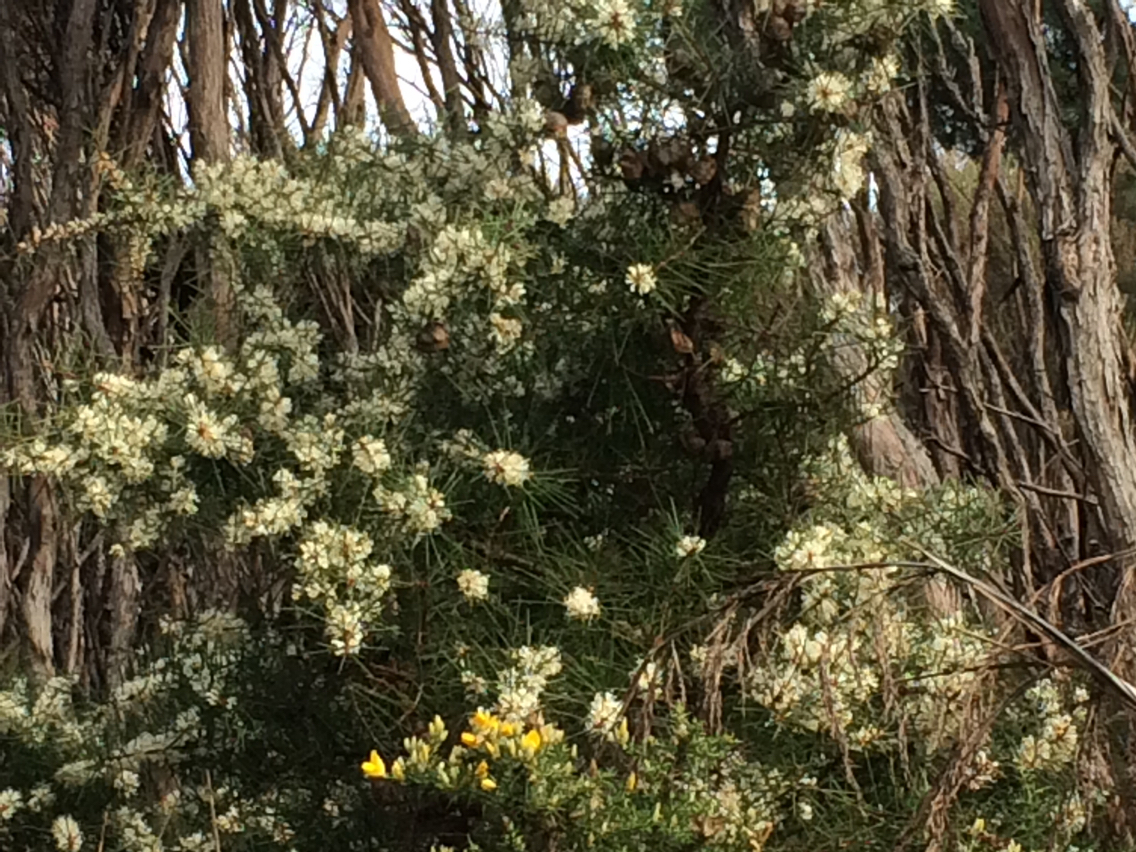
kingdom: Plantae
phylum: Tracheophyta
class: Magnoliopsida
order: Proteales
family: Proteaceae
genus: Hakea
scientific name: Hakea sericea
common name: Needle bush
